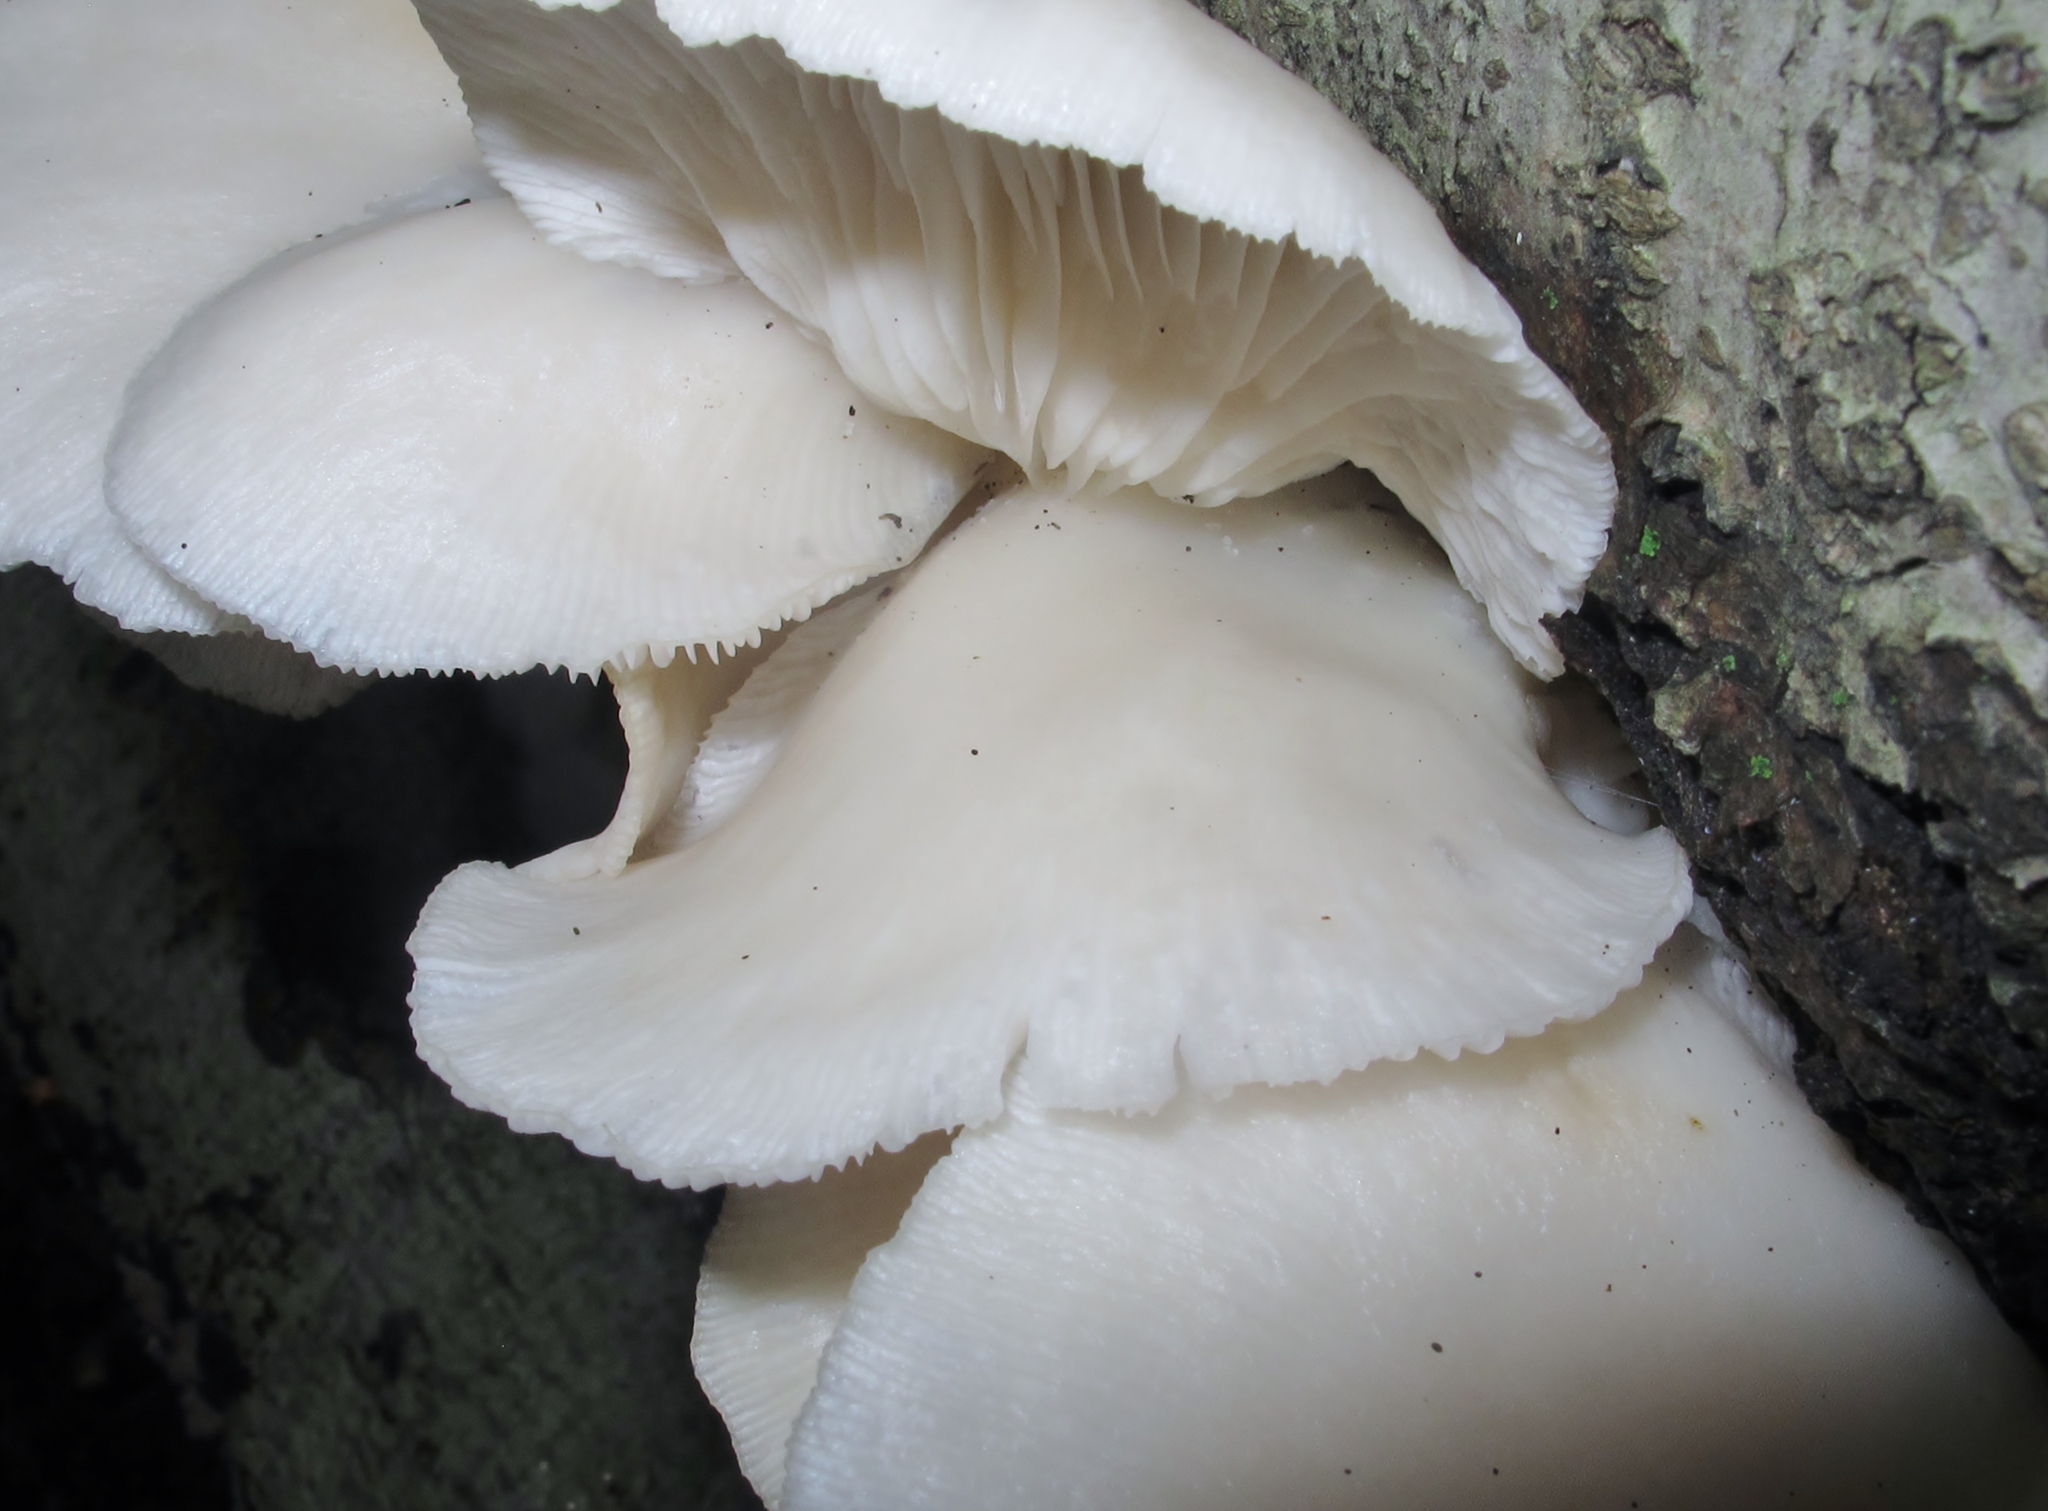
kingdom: Fungi
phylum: Basidiomycota
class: Agaricomycetes
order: Agaricales
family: Pleurotaceae
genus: Pleurotus
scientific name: Pleurotus pulmonarius
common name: Pale oyster
